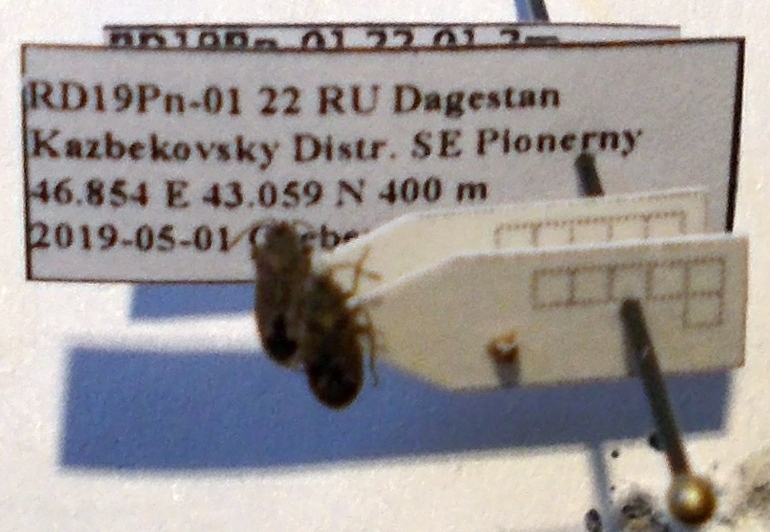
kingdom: Animalia
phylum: Arthropoda
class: Insecta
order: Hemiptera
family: Lygaeidae
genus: Lygaeosoma
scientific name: Lygaeosoma sardeum
